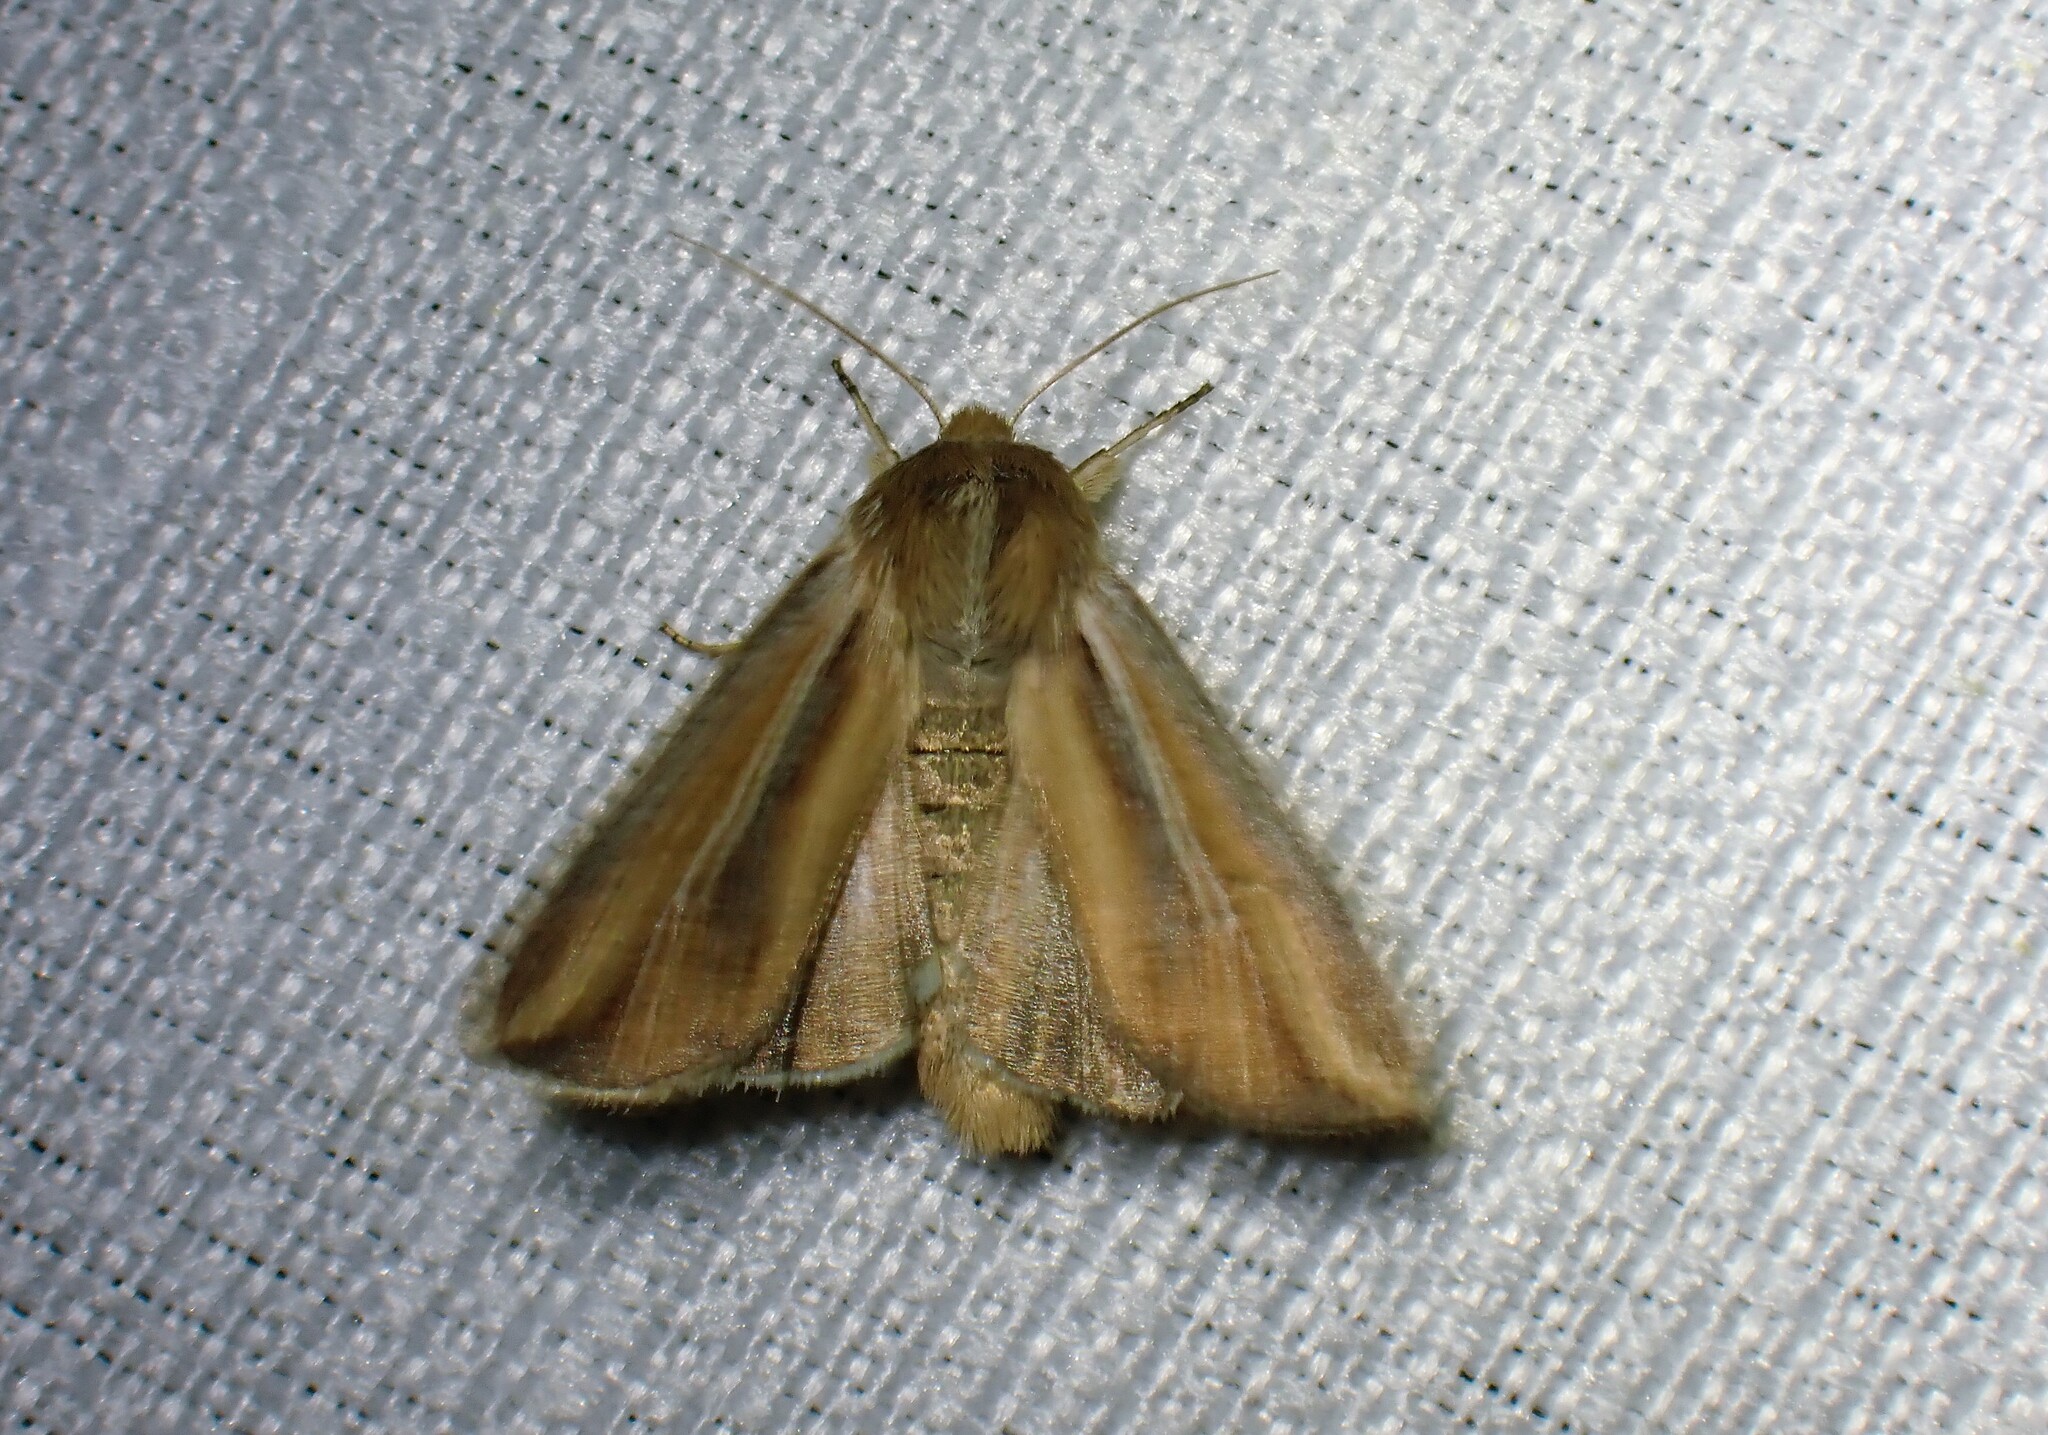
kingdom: Animalia
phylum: Arthropoda
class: Insecta
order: Lepidoptera
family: Noctuidae
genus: Dargida
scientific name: Dargida diffusa
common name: Wheat head armyworm
